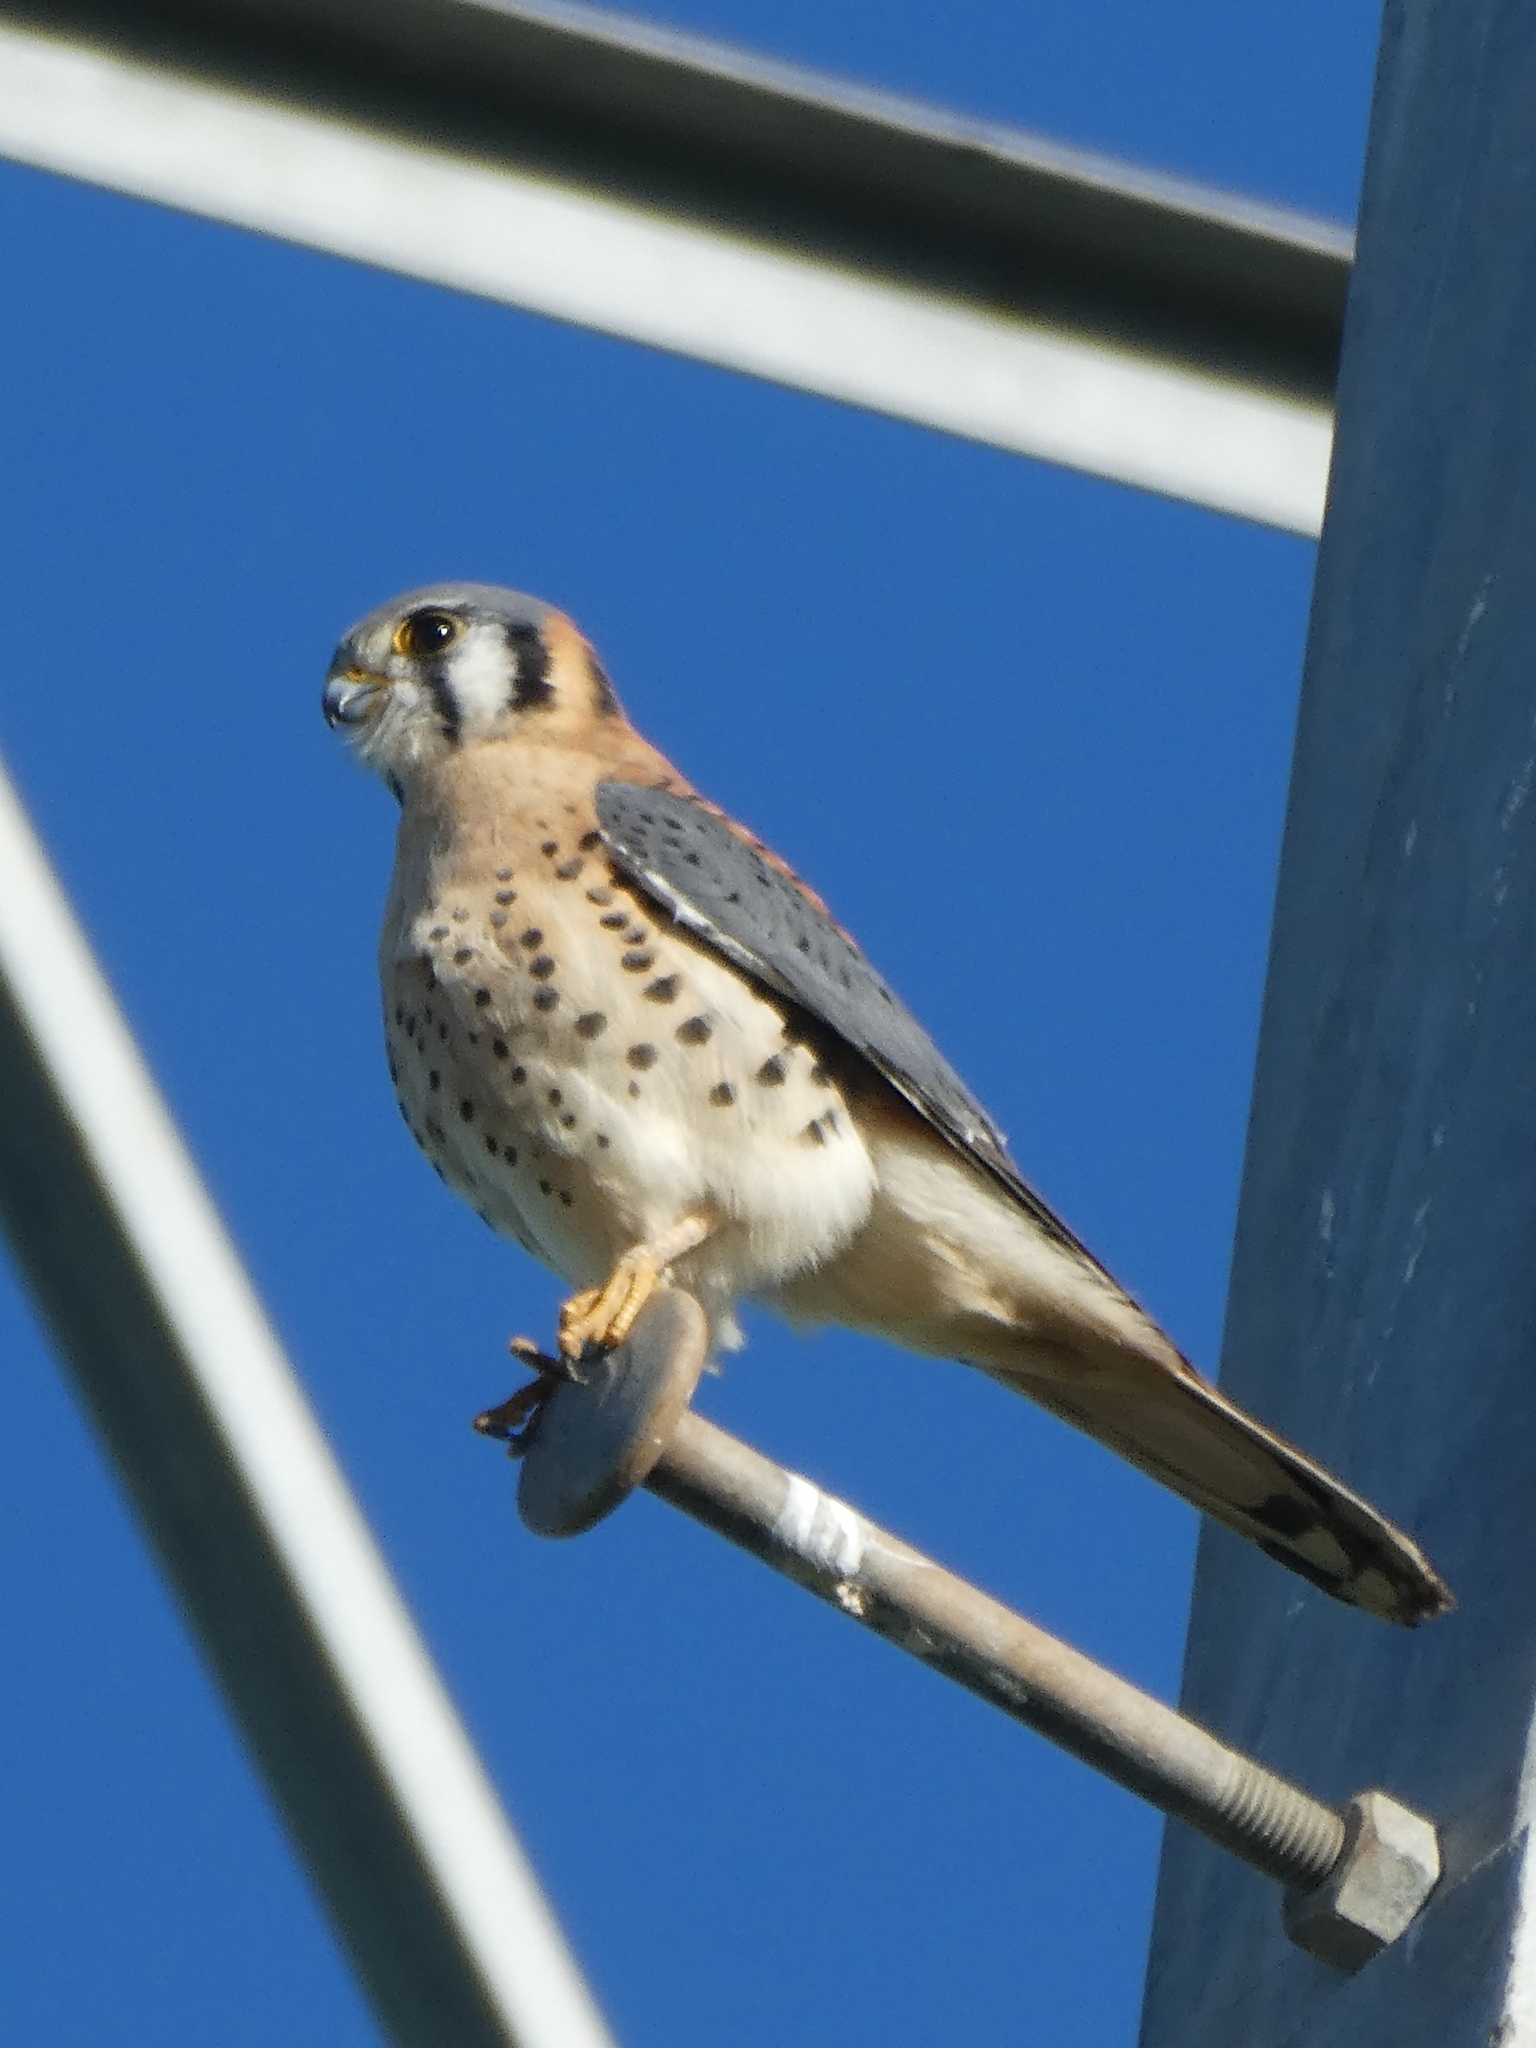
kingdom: Animalia
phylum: Chordata
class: Aves
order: Falconiformes
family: Falconidae
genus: Falco
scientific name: Falco sparverius
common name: American kestrel
